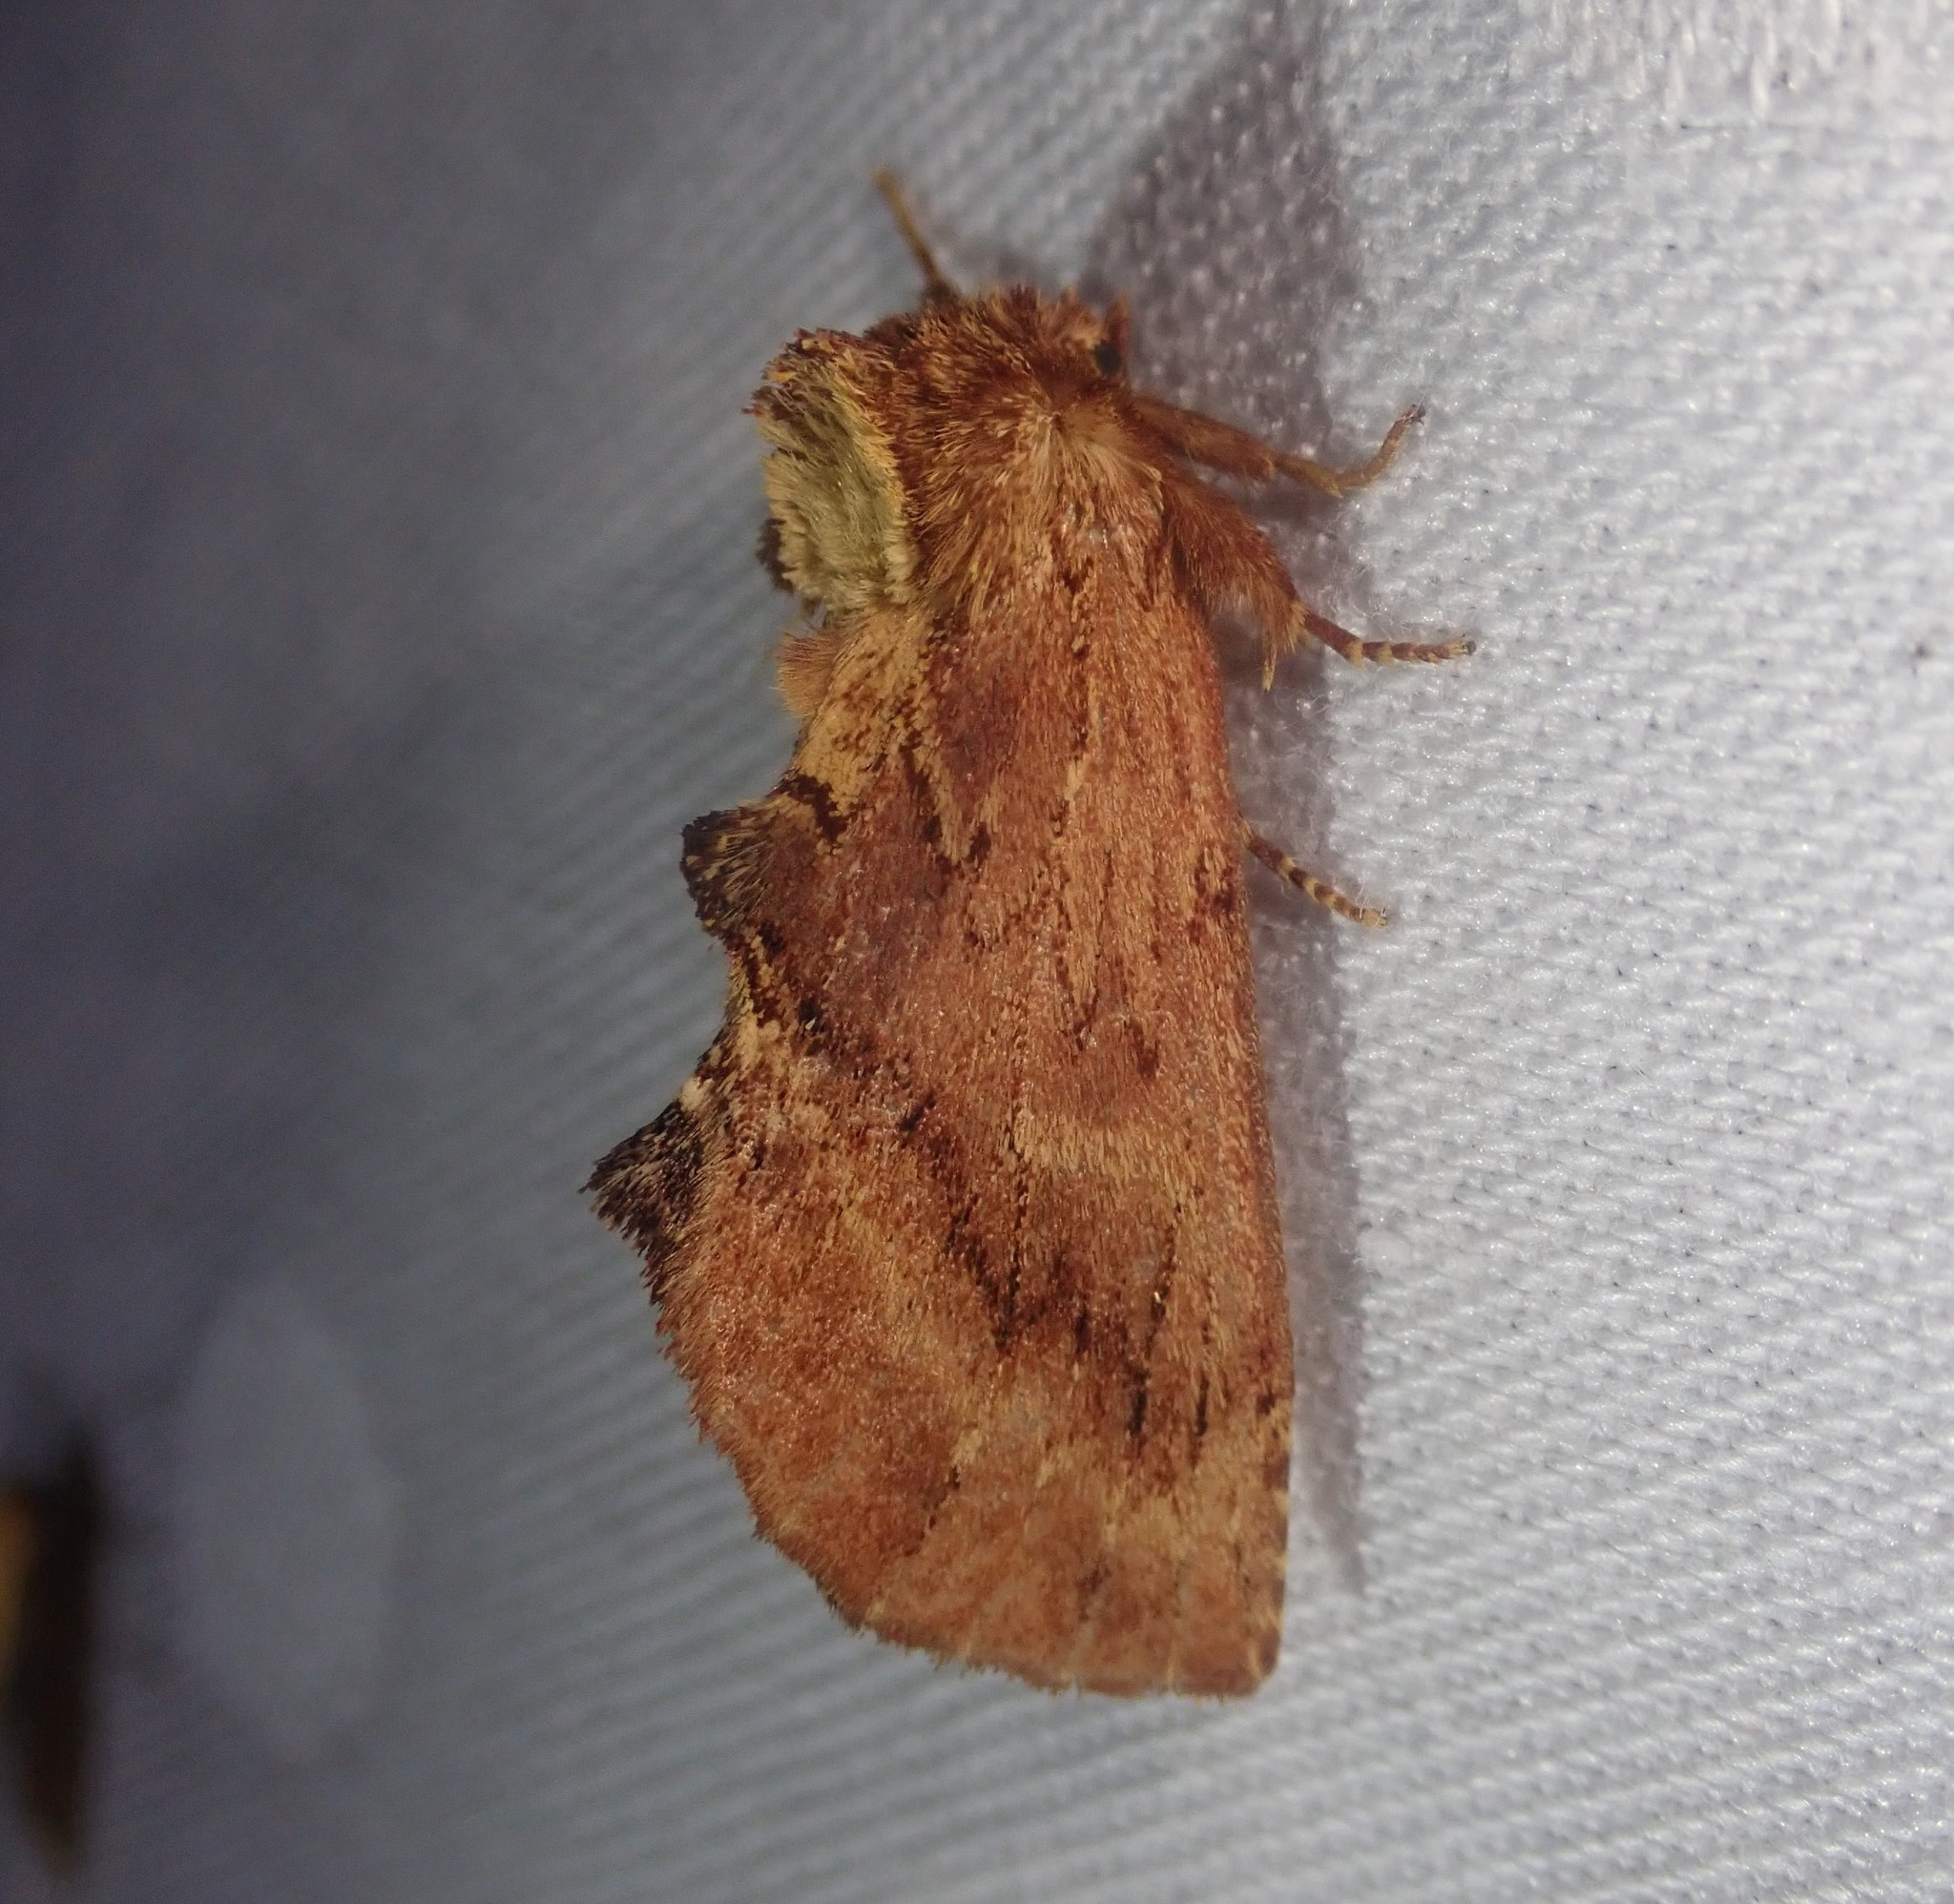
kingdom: Animalia
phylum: Arthropoda
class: Insecta
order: Lepidoptera
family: Notodontidae
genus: Ptilodon
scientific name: Ptilodon capucina
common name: Coxcomb prominent
